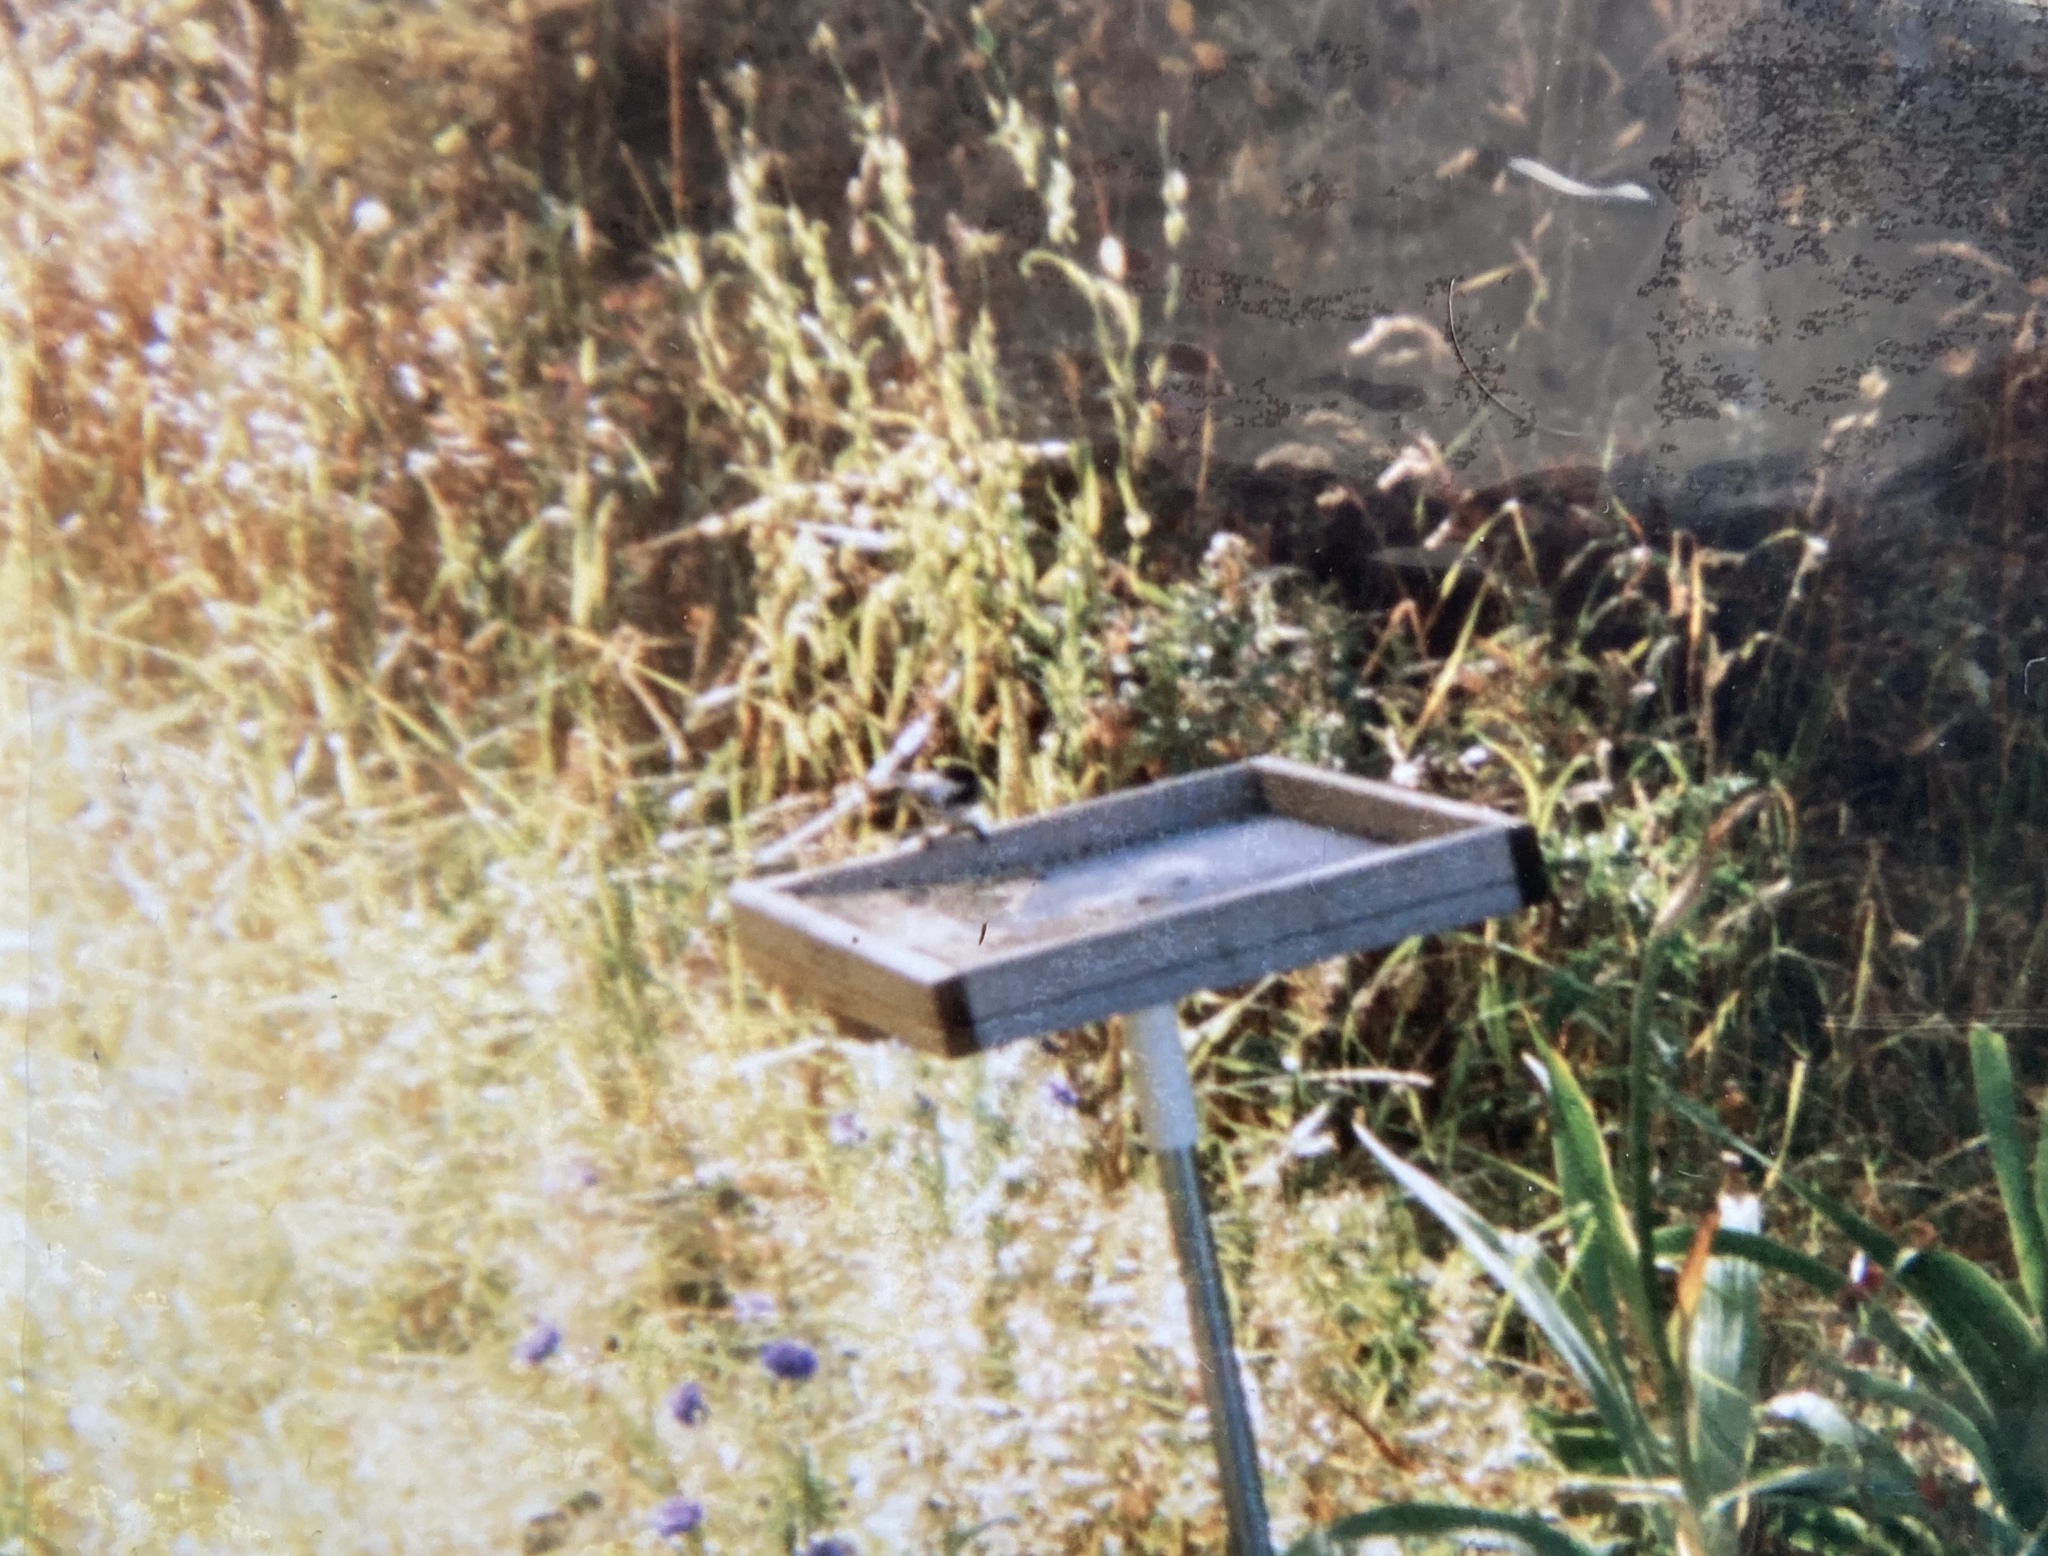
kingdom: Animalia
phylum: Chordata
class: Aves
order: Passeriformes
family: Paridae
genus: Poecile
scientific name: Poecile atricapillus
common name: Black-capped chickadee
